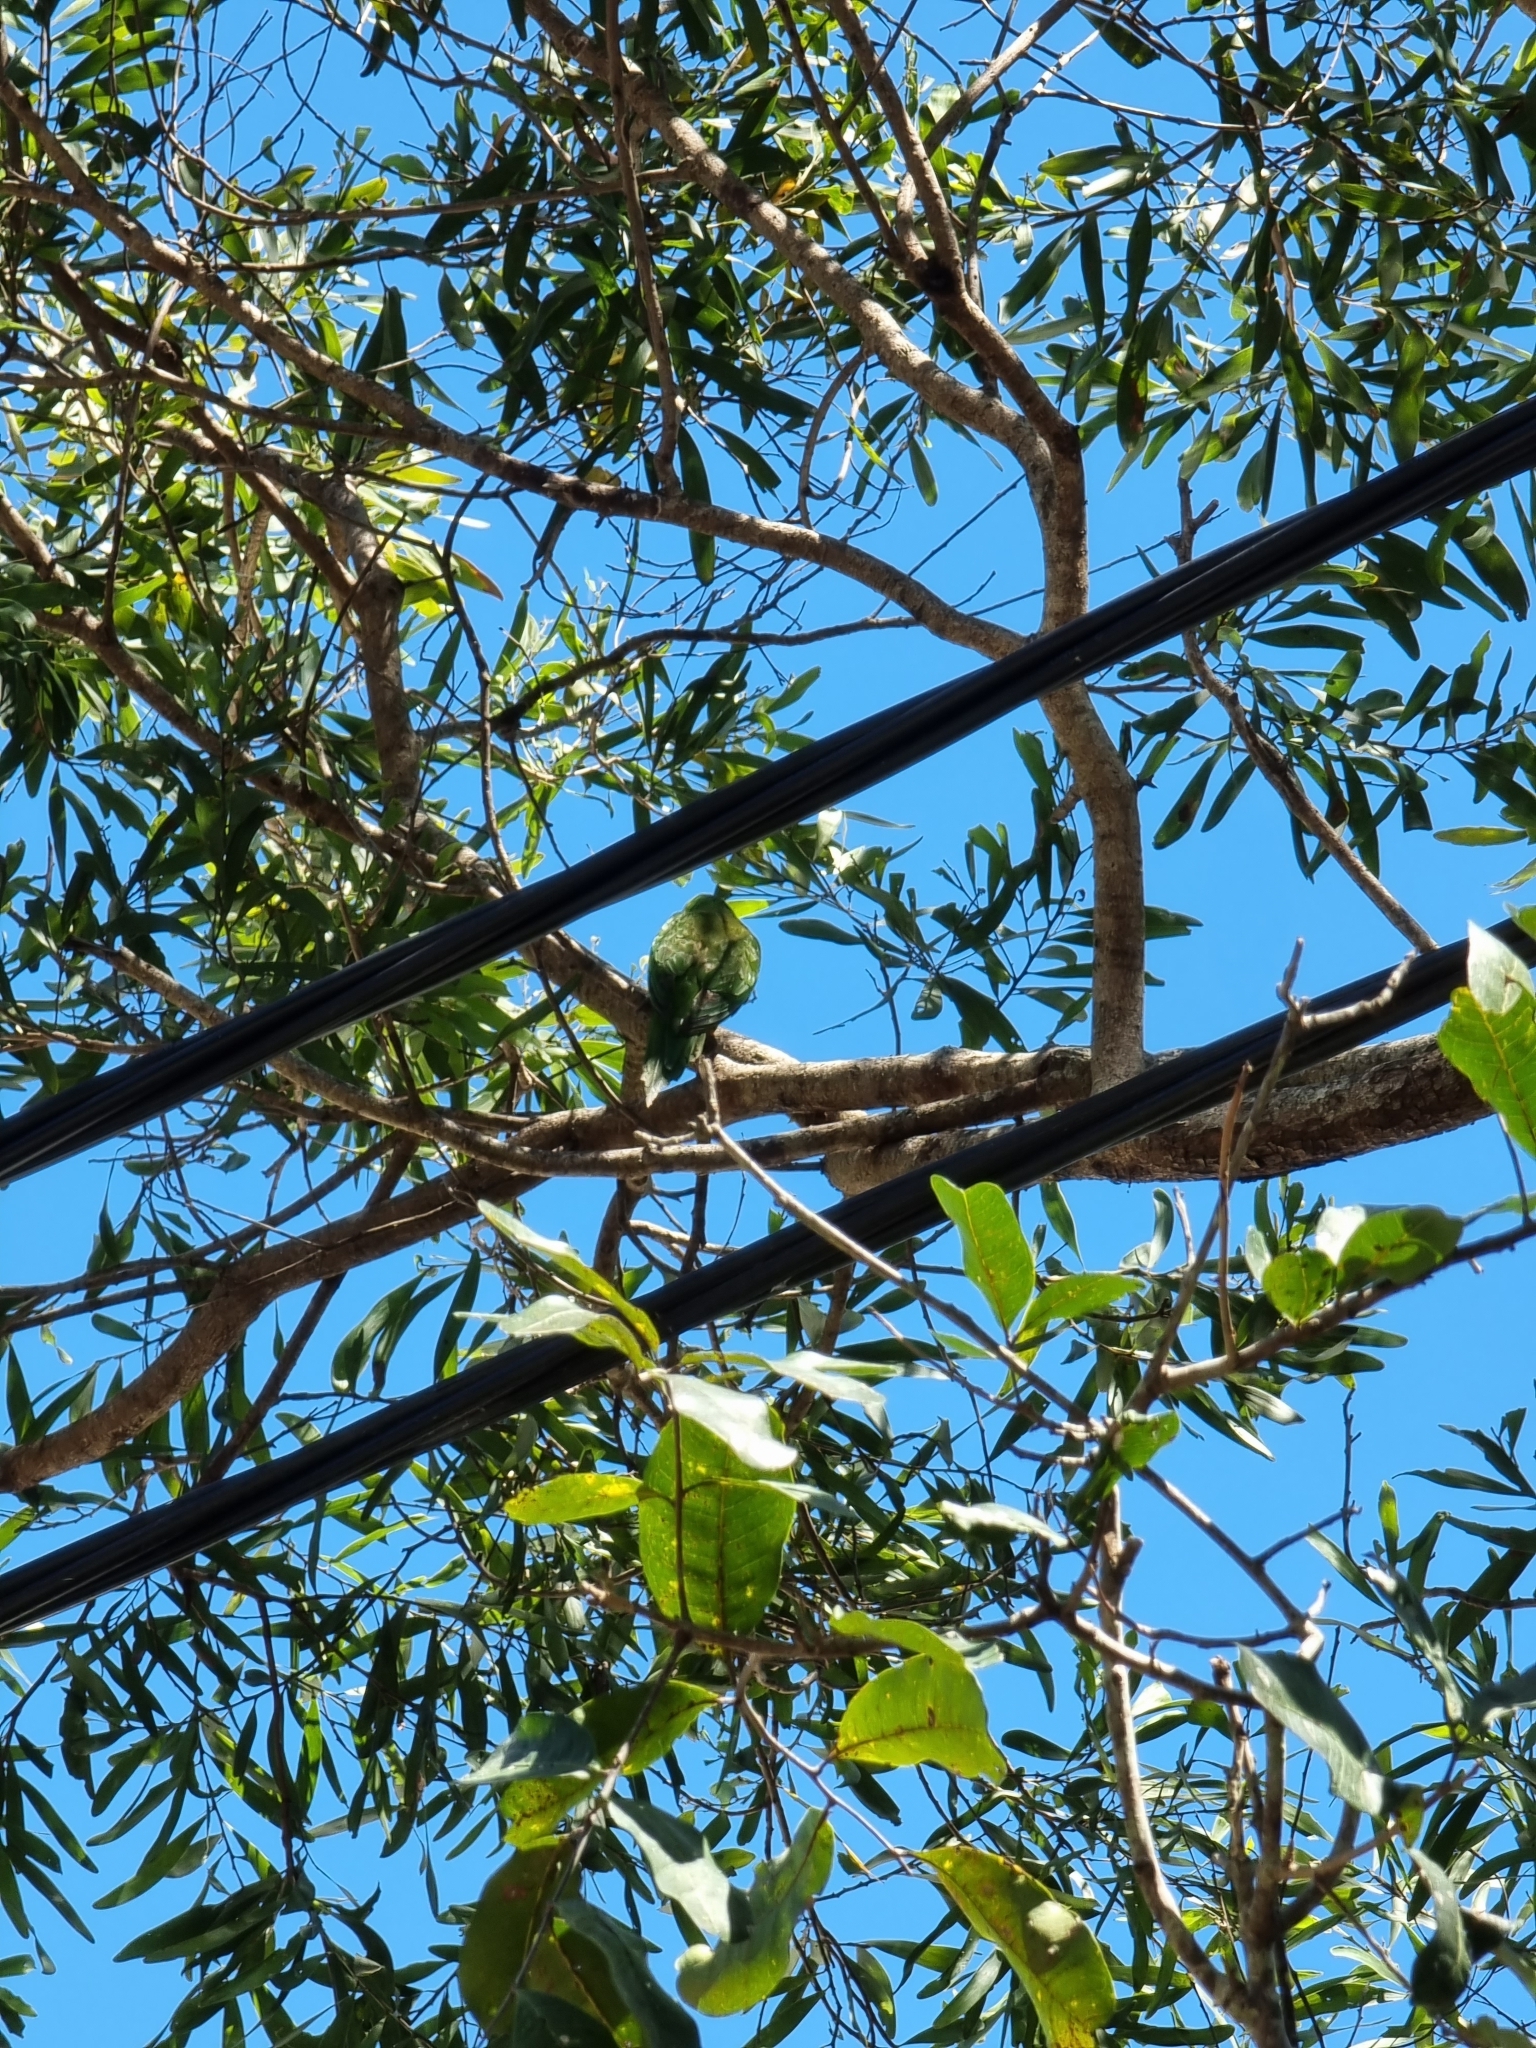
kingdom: Animalia
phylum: Chordata
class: Aves
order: Psittaciformes
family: Psittacidae
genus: Trichoglossus
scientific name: Trichoglossus haematodus
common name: Coconut lorikeet
